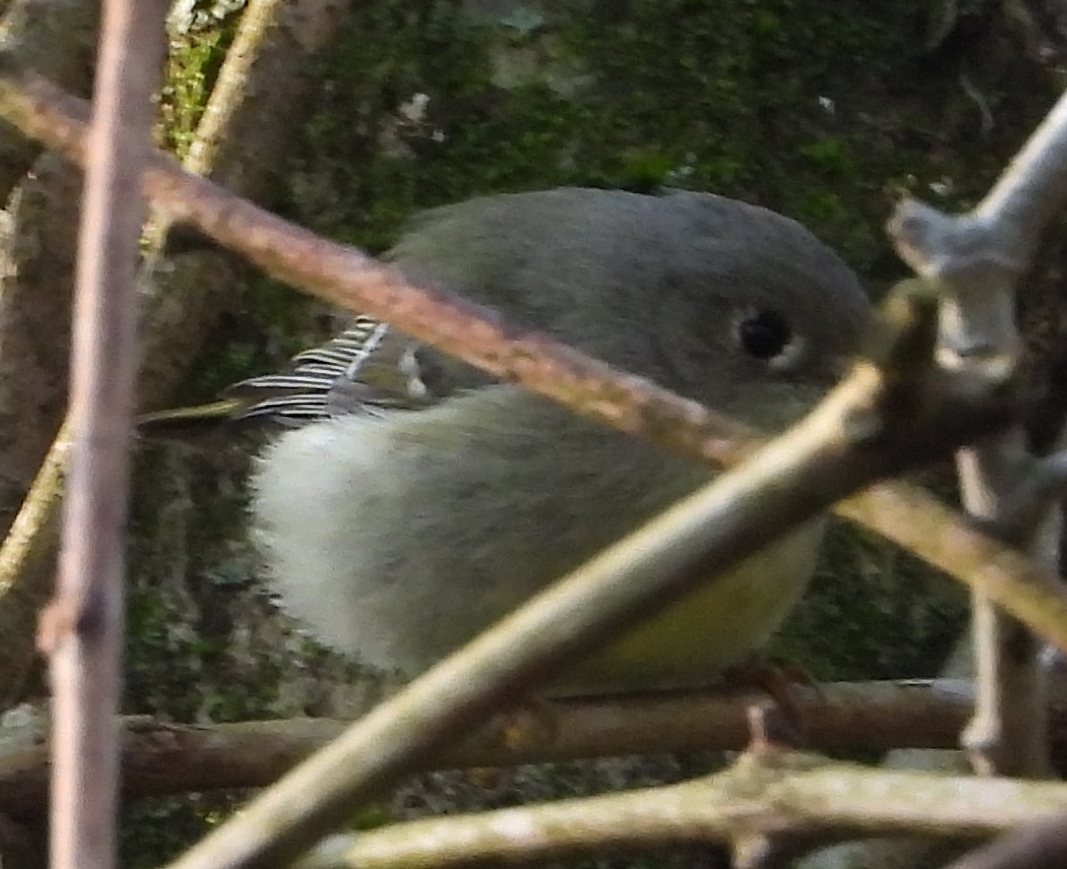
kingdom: Animalia
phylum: Chordata
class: Aves
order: Passeriformes
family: Regulidae
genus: Regulus
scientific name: Regulus calendula
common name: Ruby-crowned kinglet
